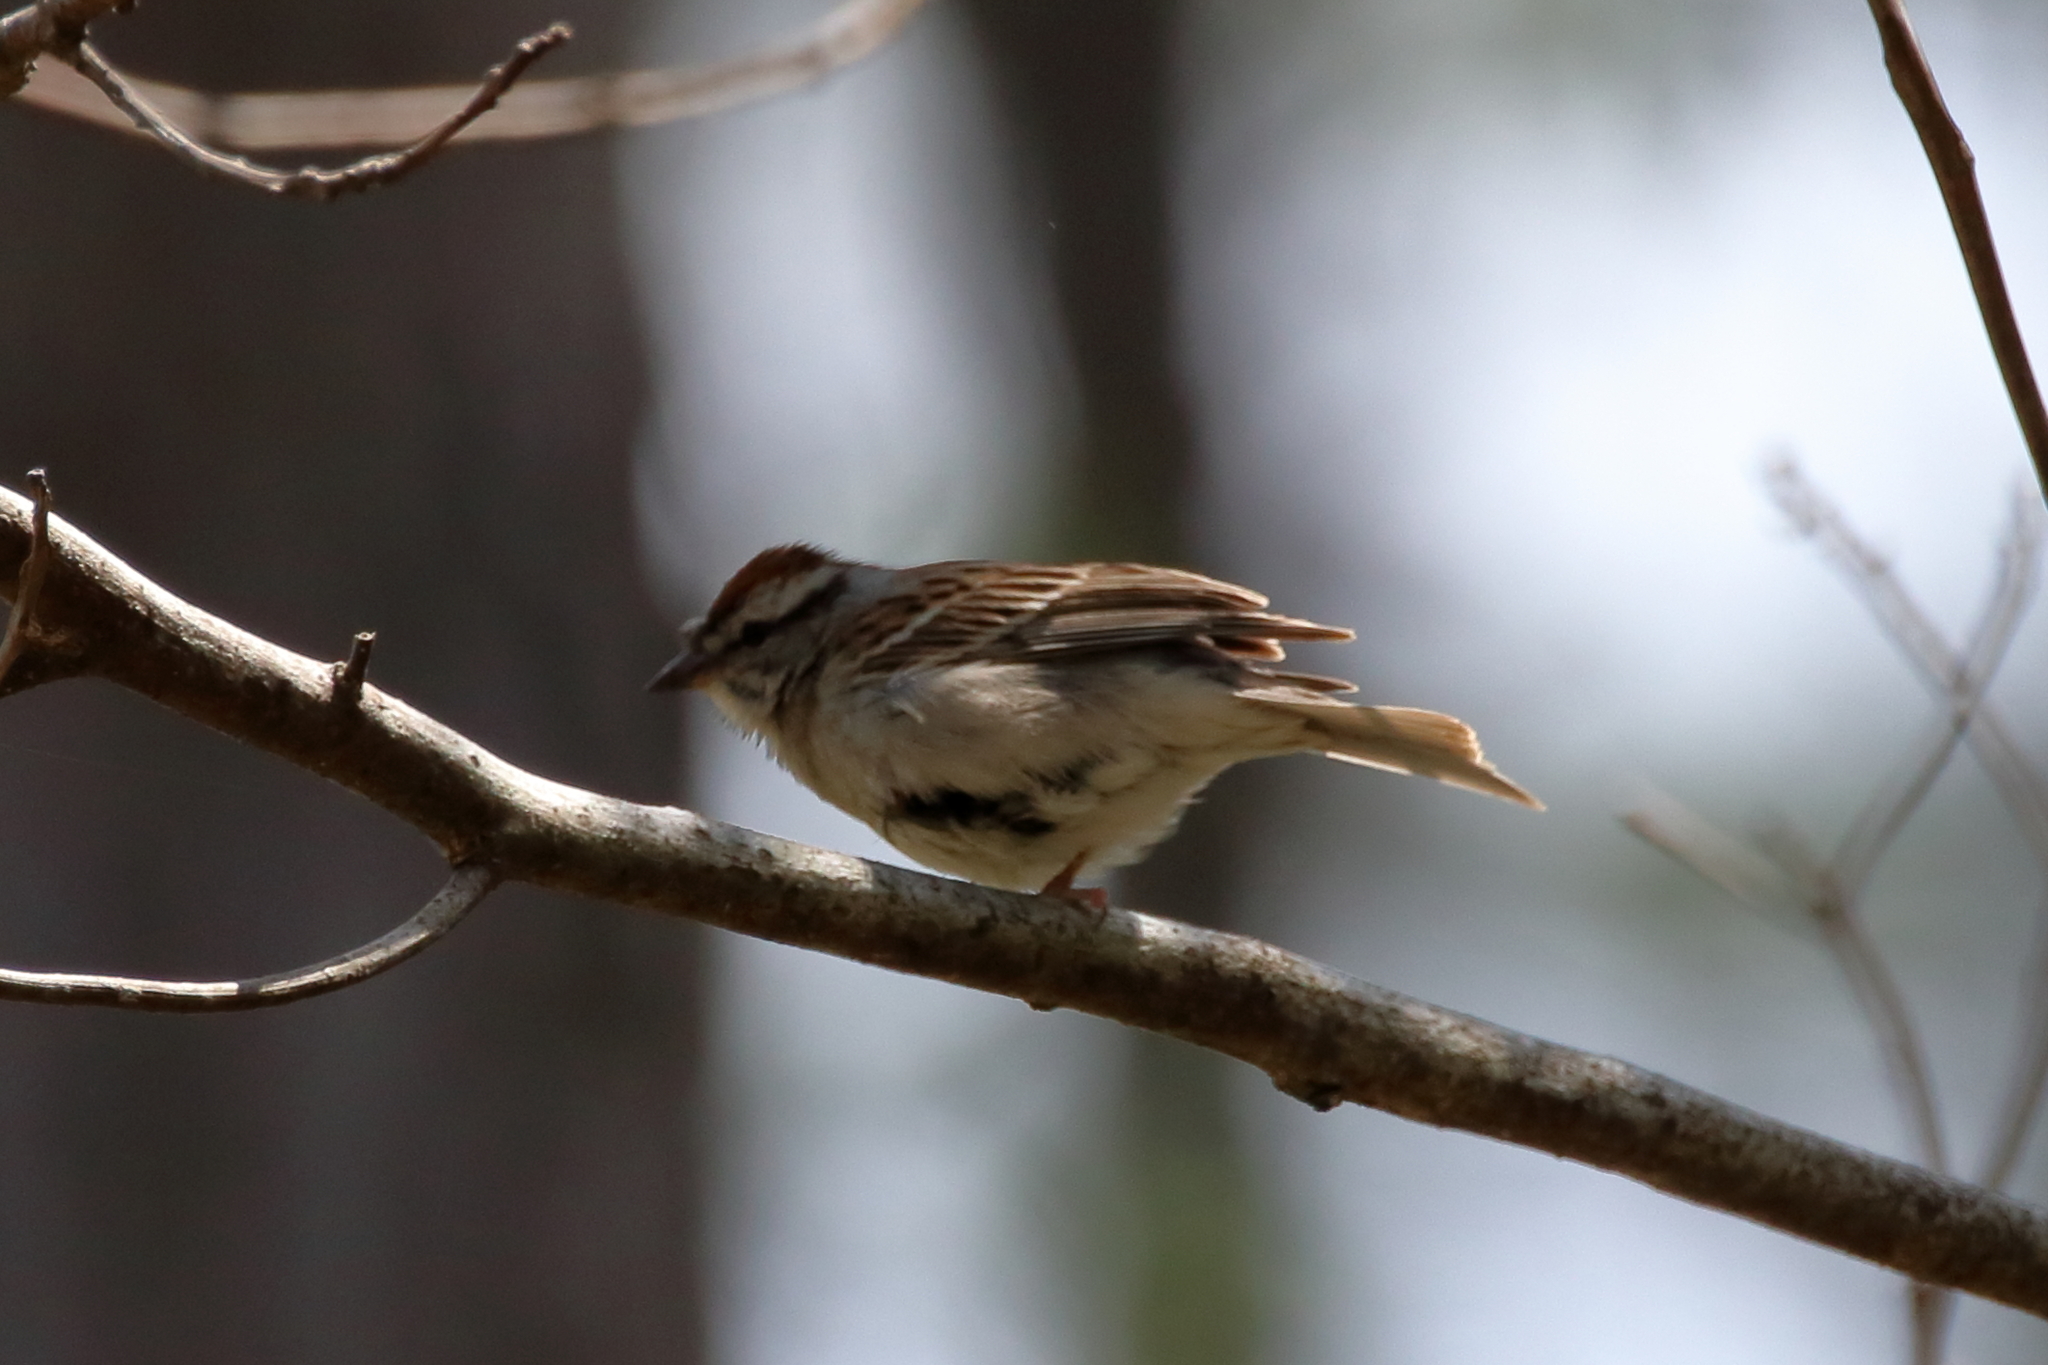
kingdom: Animalia
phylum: Chordata
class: Aves
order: Passeriformes
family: Passerellidae
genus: Spizella
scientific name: Spizella passerina
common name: Chipping sparrow
